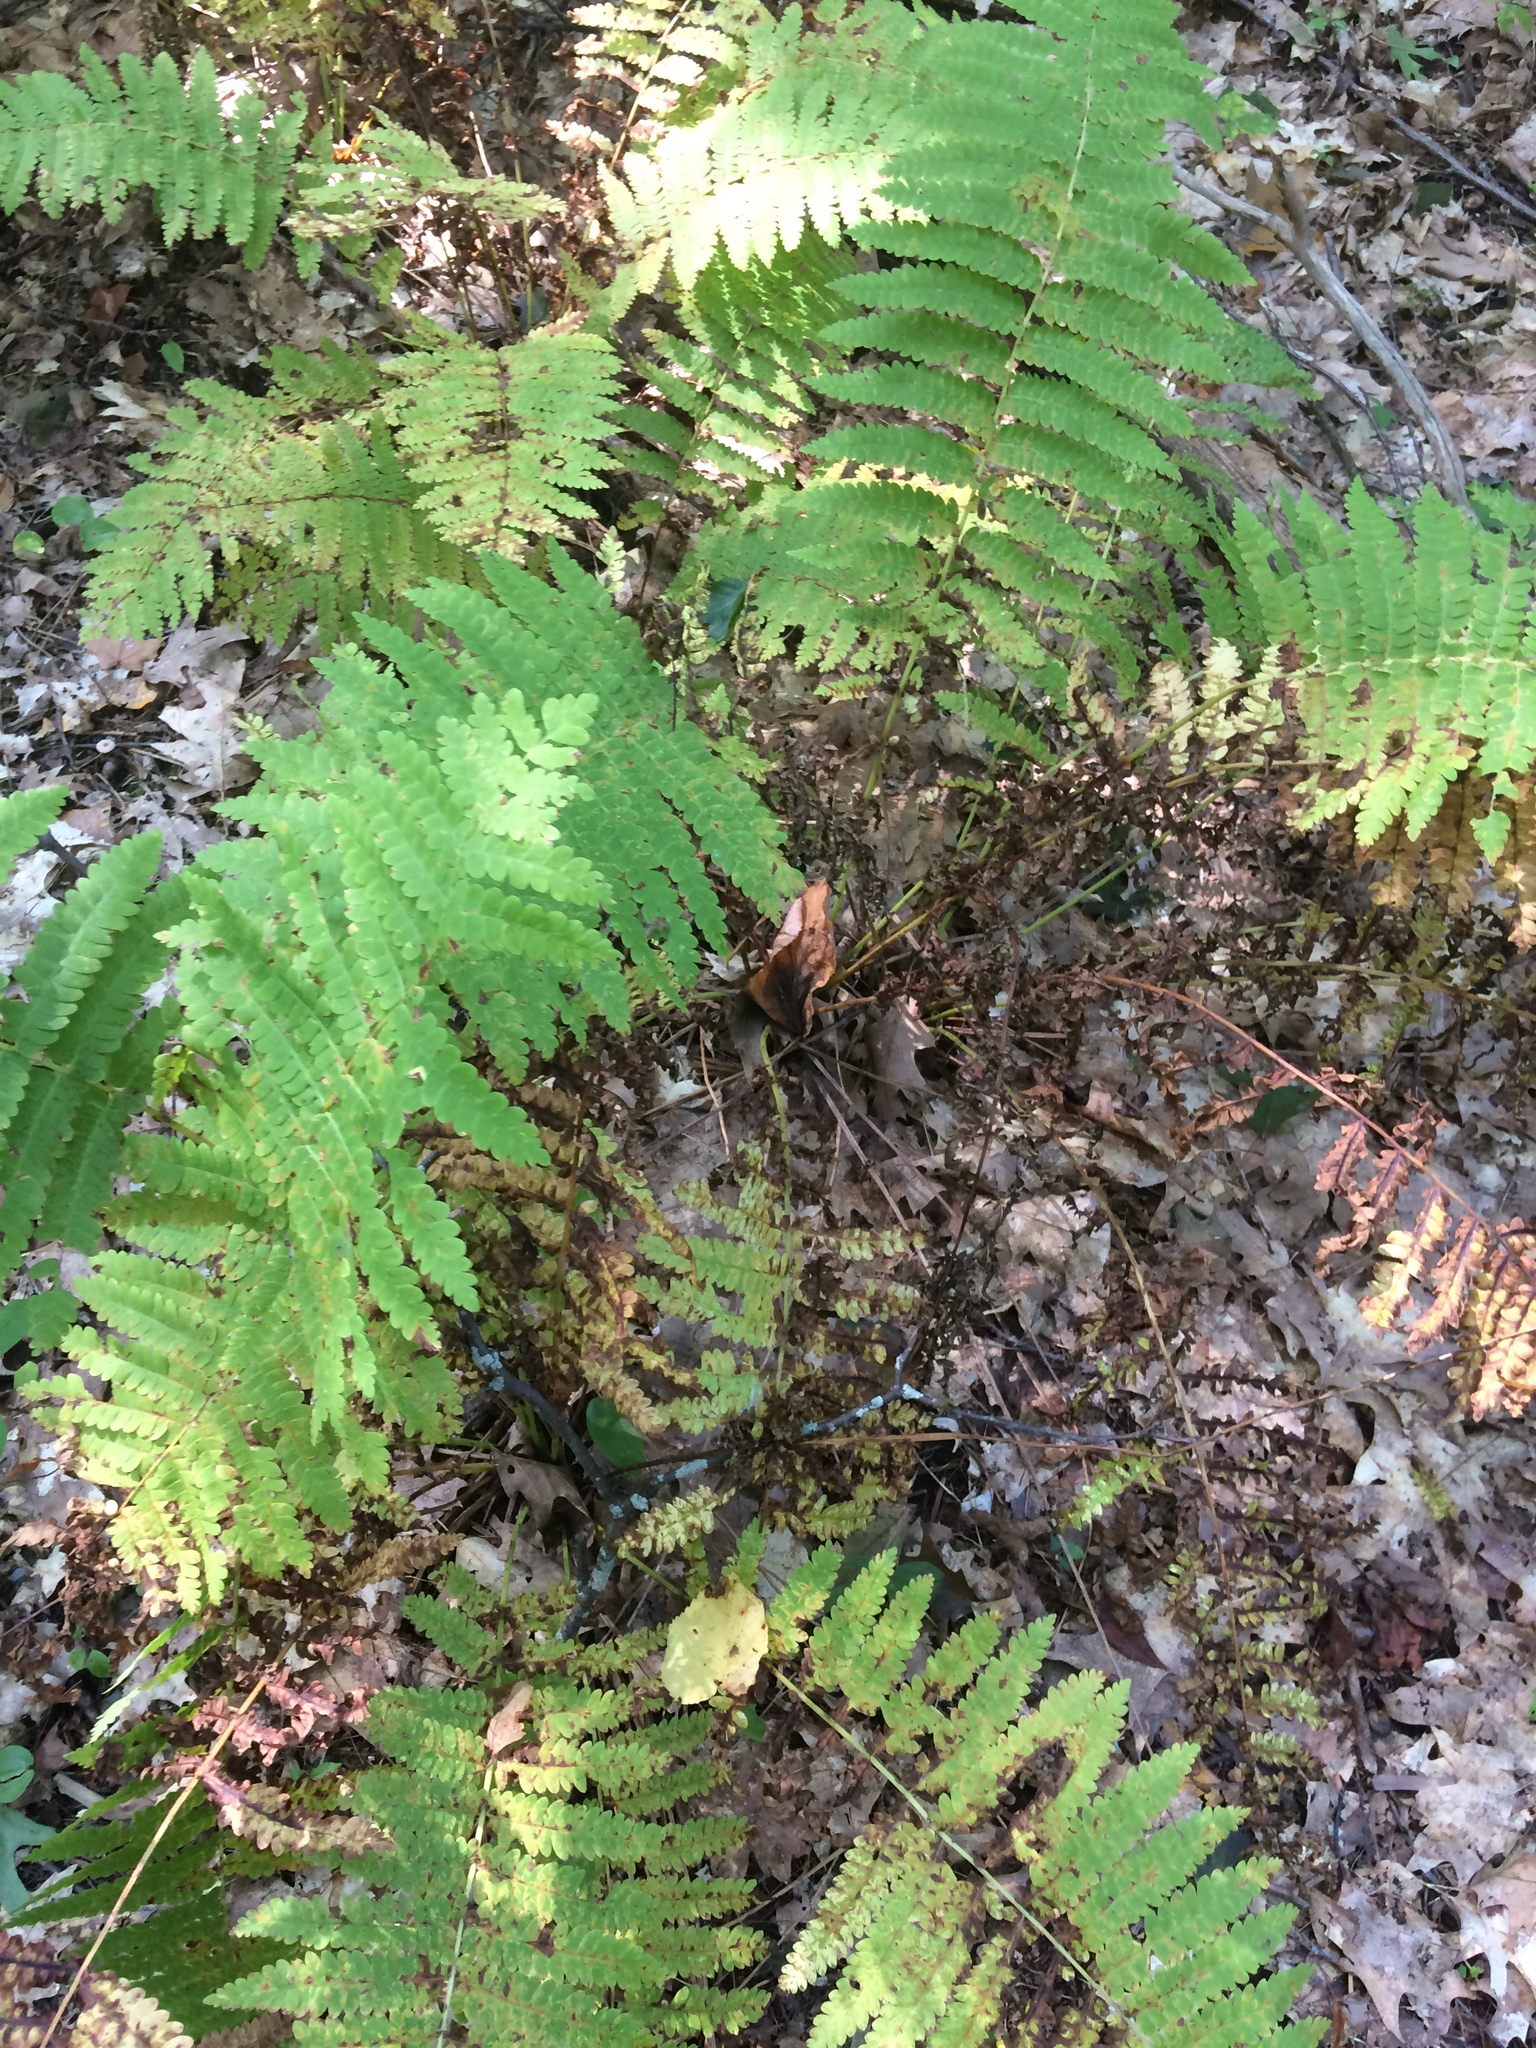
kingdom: Plantae
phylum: Tracheophyta
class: Polypodiopsida
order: Osmundales
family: Osmundaceae
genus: Claytosmunda
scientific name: Claytosmunda claytoniana
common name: Clayton's fern
